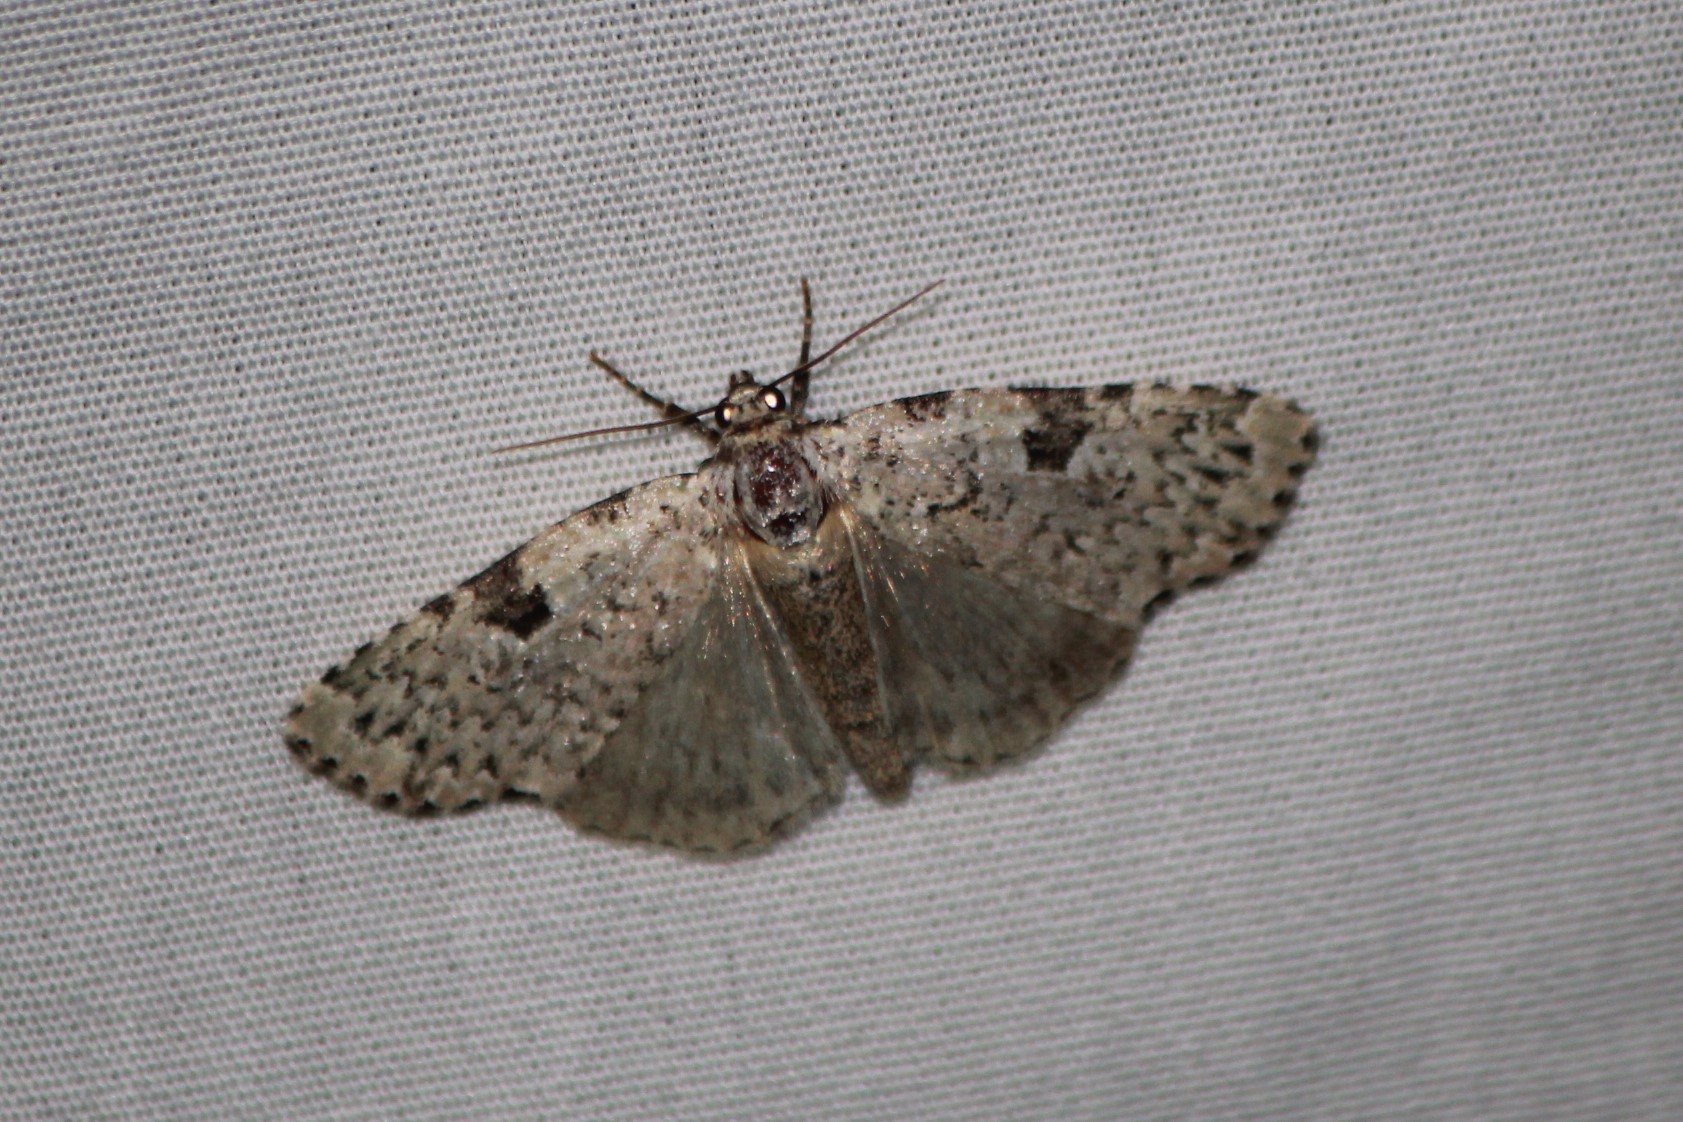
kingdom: Animalia
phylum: Arthropoda
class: Insecta
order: Lepidoptera
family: Noctuidae
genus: Leuconycta
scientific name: Leuconycta diphteroides
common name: Green leuconycta moth
